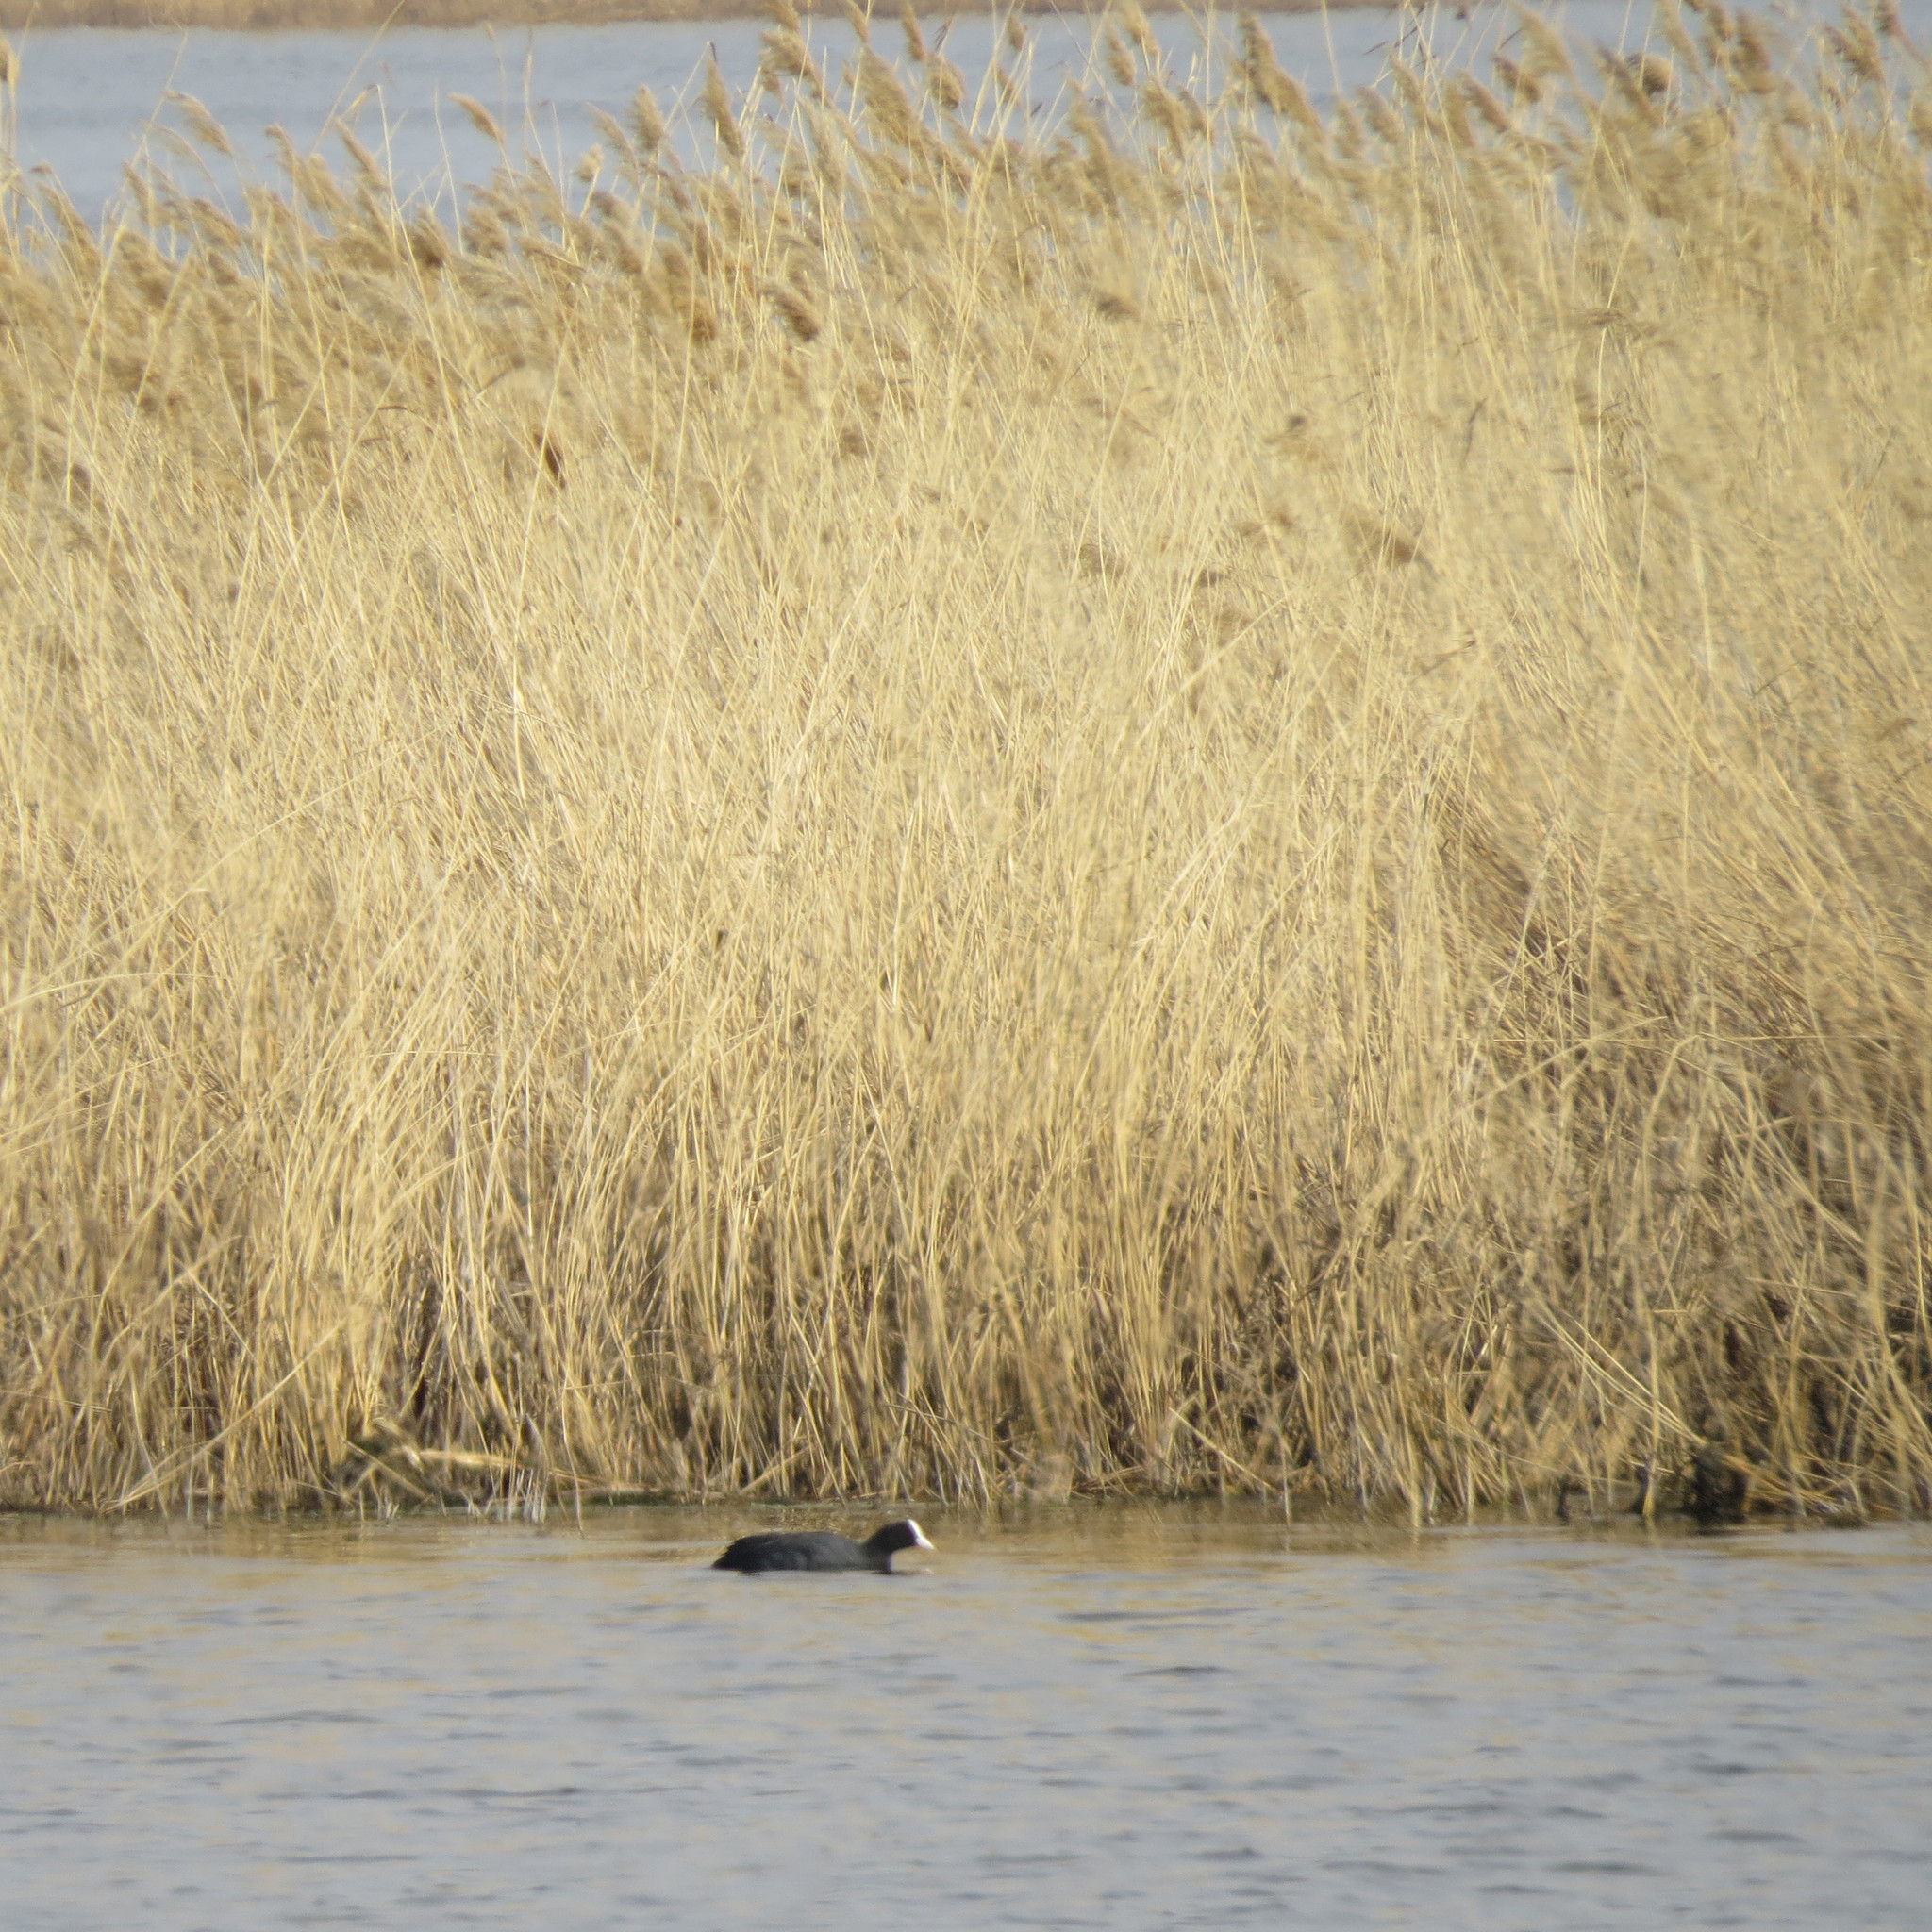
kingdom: Animalia
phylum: Chordata
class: Aves
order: Gruiformes
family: Rallidae
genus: Fulica
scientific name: Fulica atra
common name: Eurasian coot
